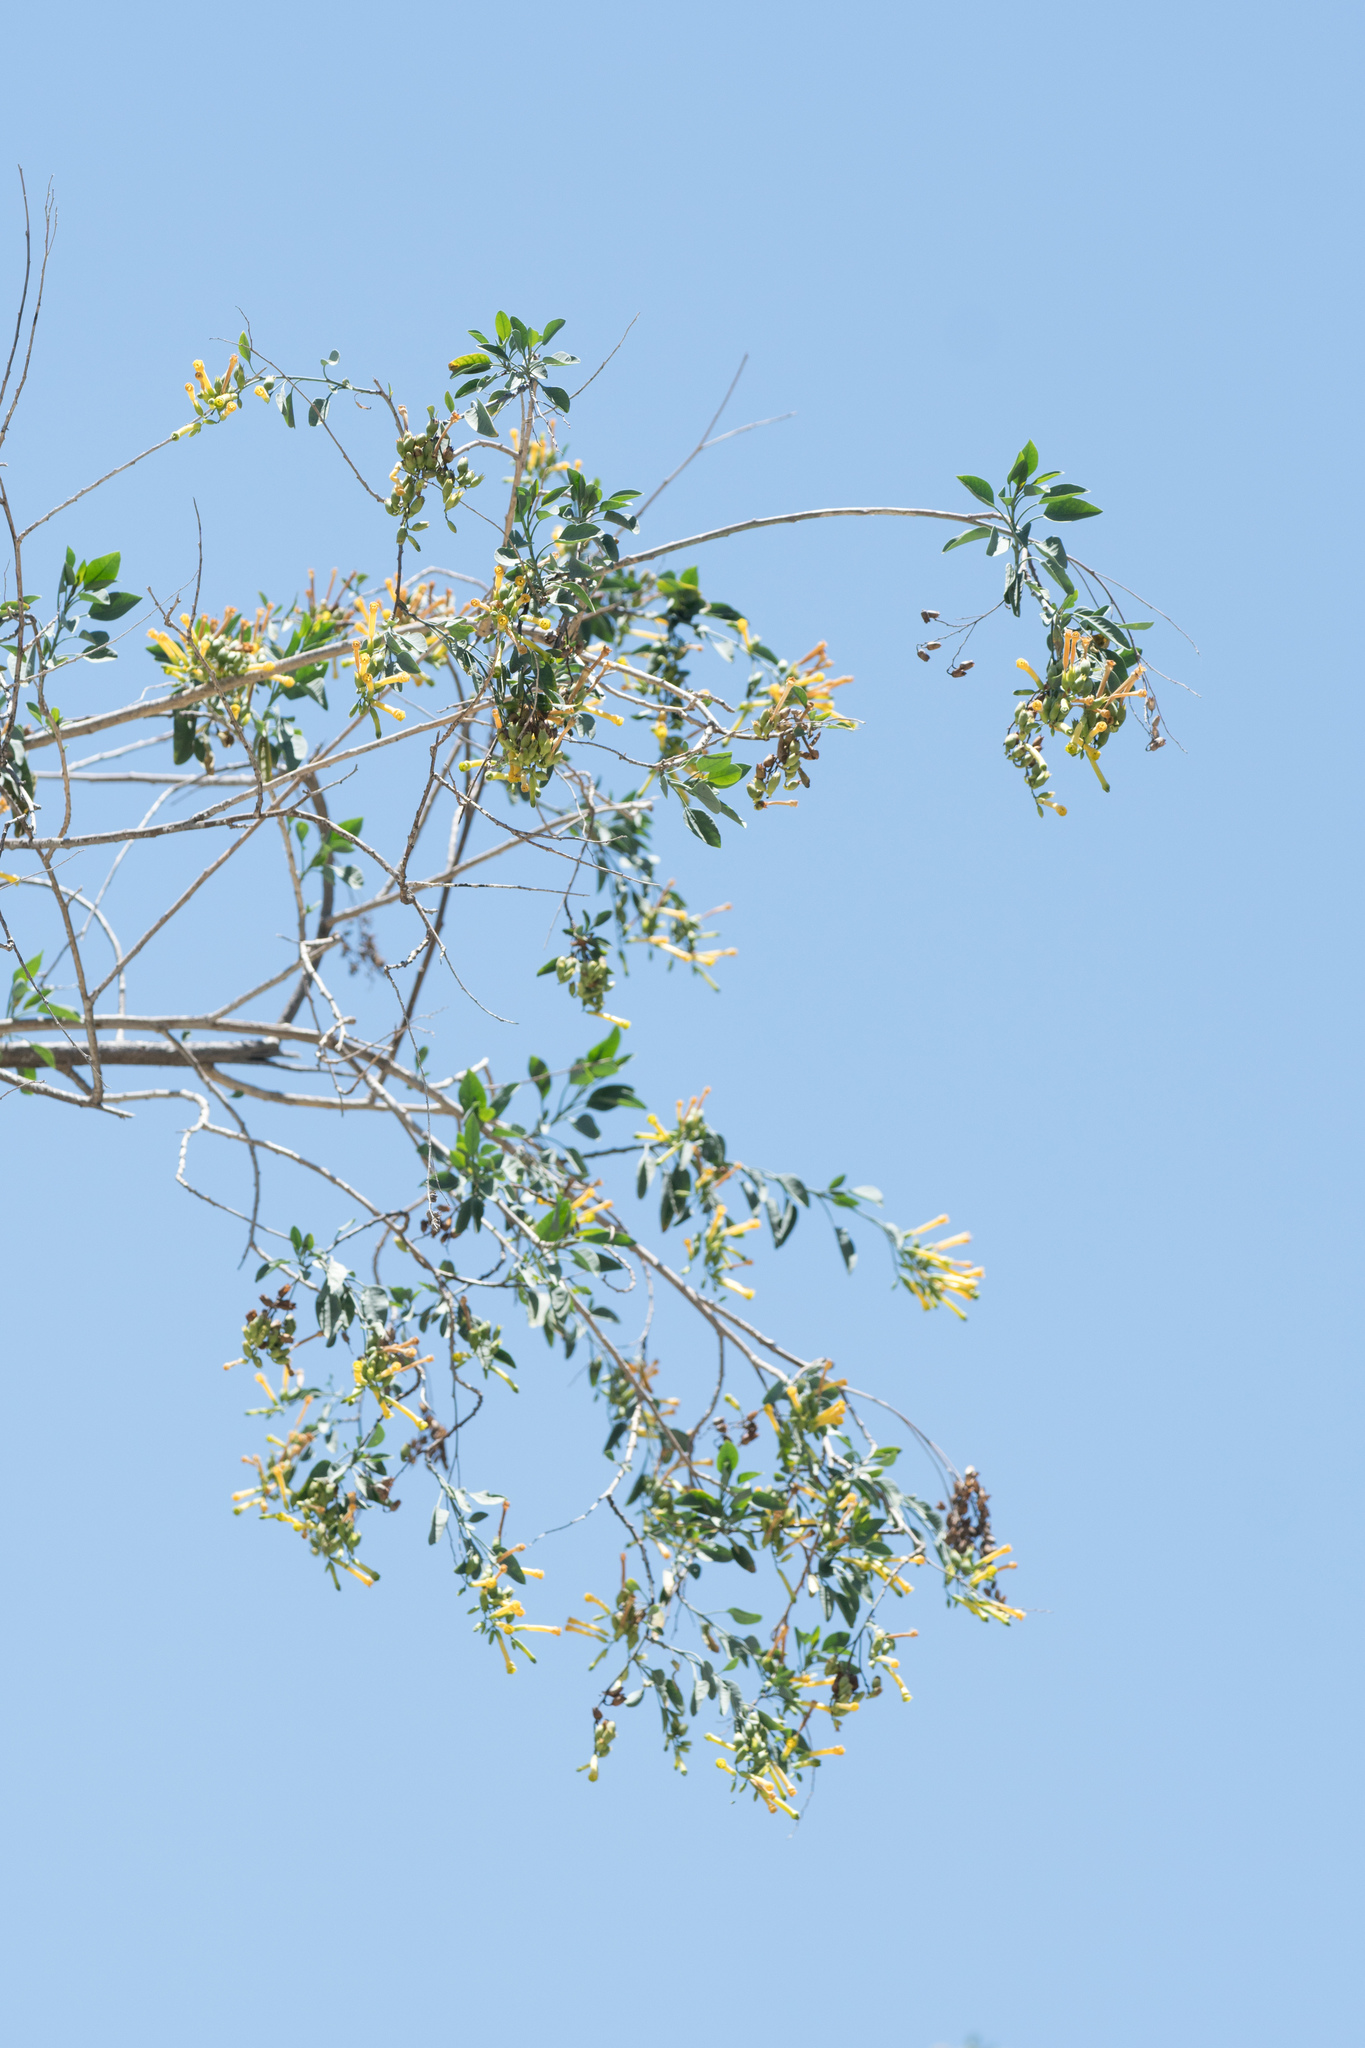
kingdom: Plantae
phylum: Tracheophyta
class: Magnoliopsida
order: Solanales
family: Solanaceae
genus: Nicotiana
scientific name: Nicotiana glauca
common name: Tree tobacco
